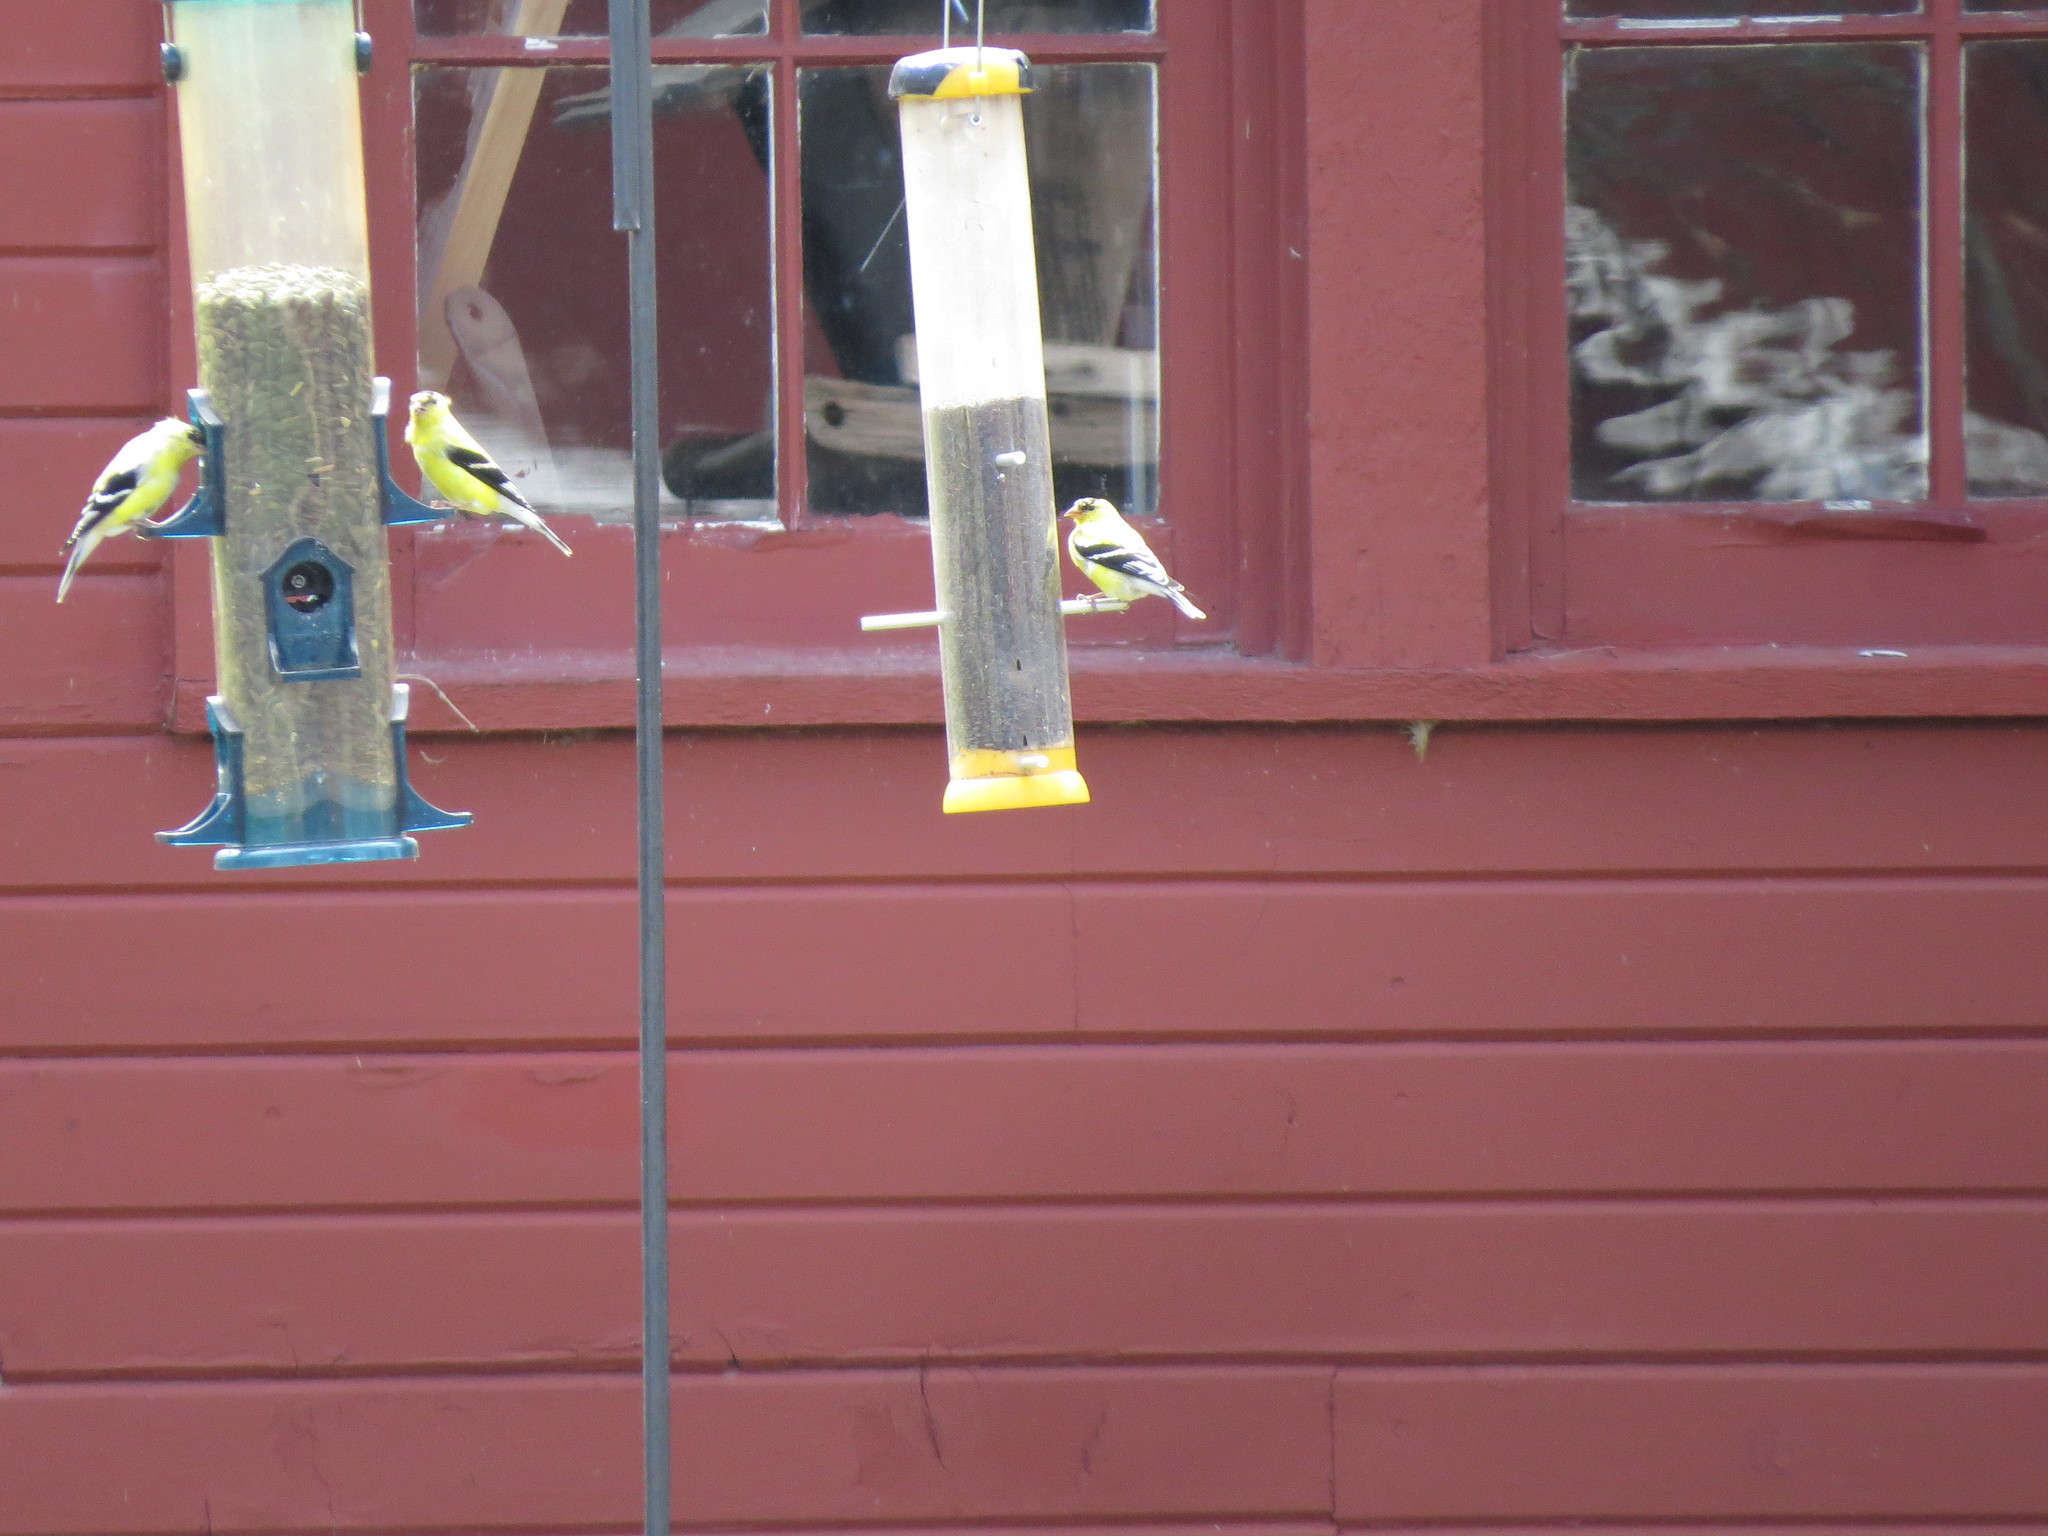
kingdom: Animalia
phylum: Chordata
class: Aves
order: Passeriformes
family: Fringillidae
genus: Spinus
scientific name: Spinus tristis
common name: American goldfinch
